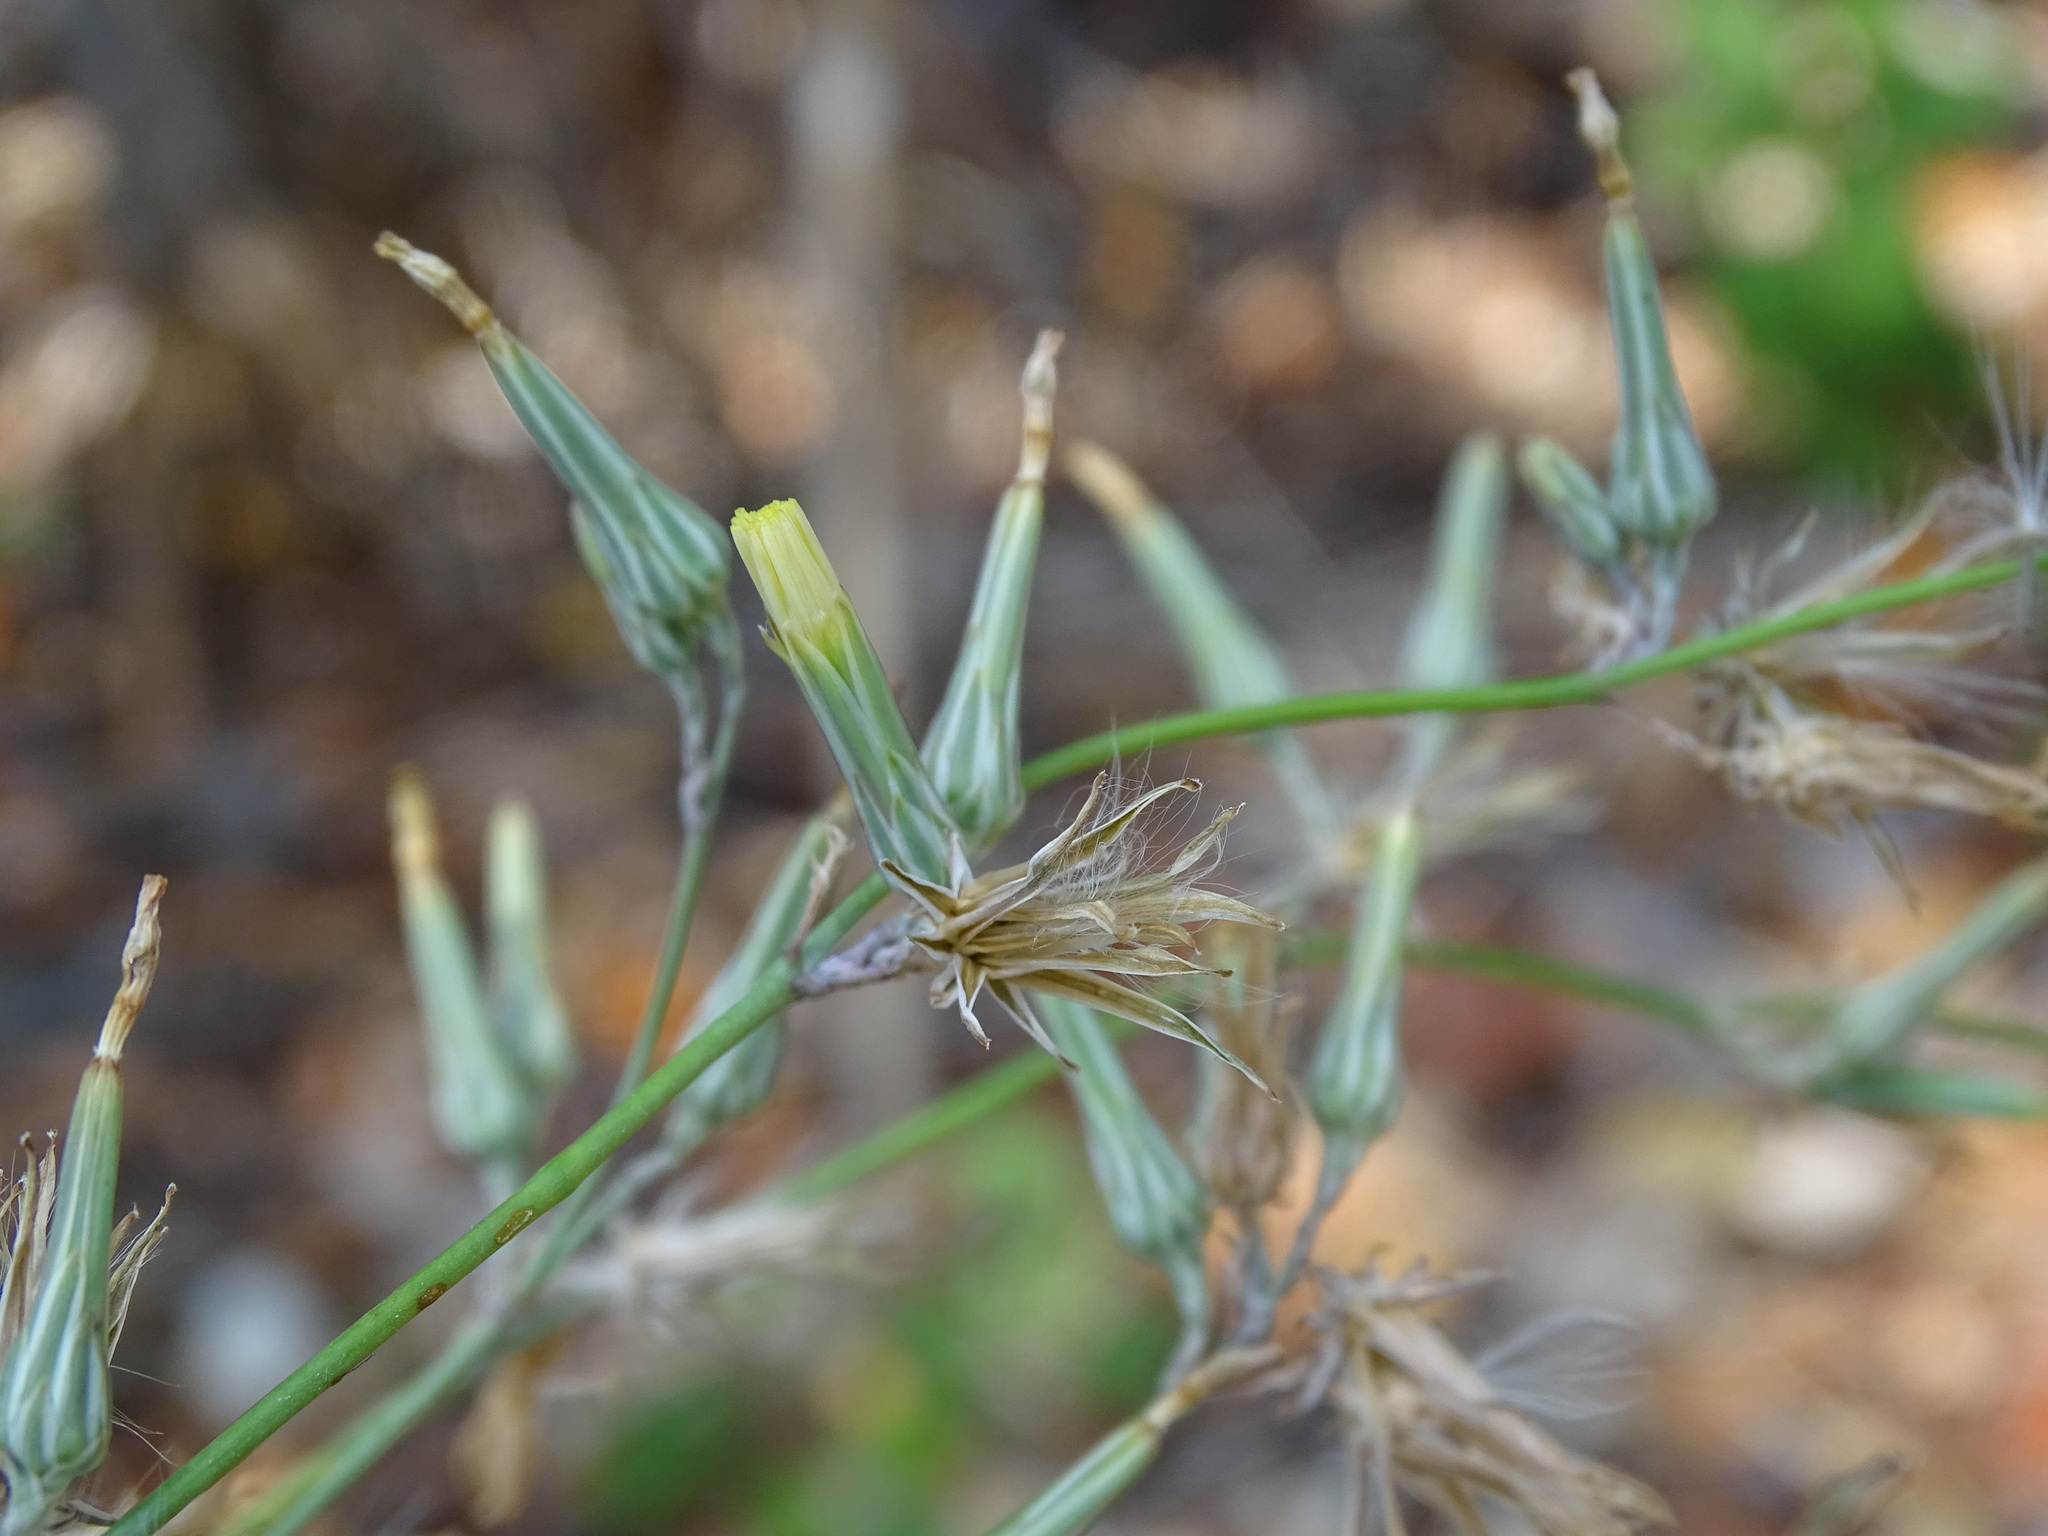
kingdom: Plantae
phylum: Tracheophyta
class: Magnoliopsida
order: Asterales
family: Asteraceae
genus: Launaea
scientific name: Launaea intybacea
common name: Achicoria azul
